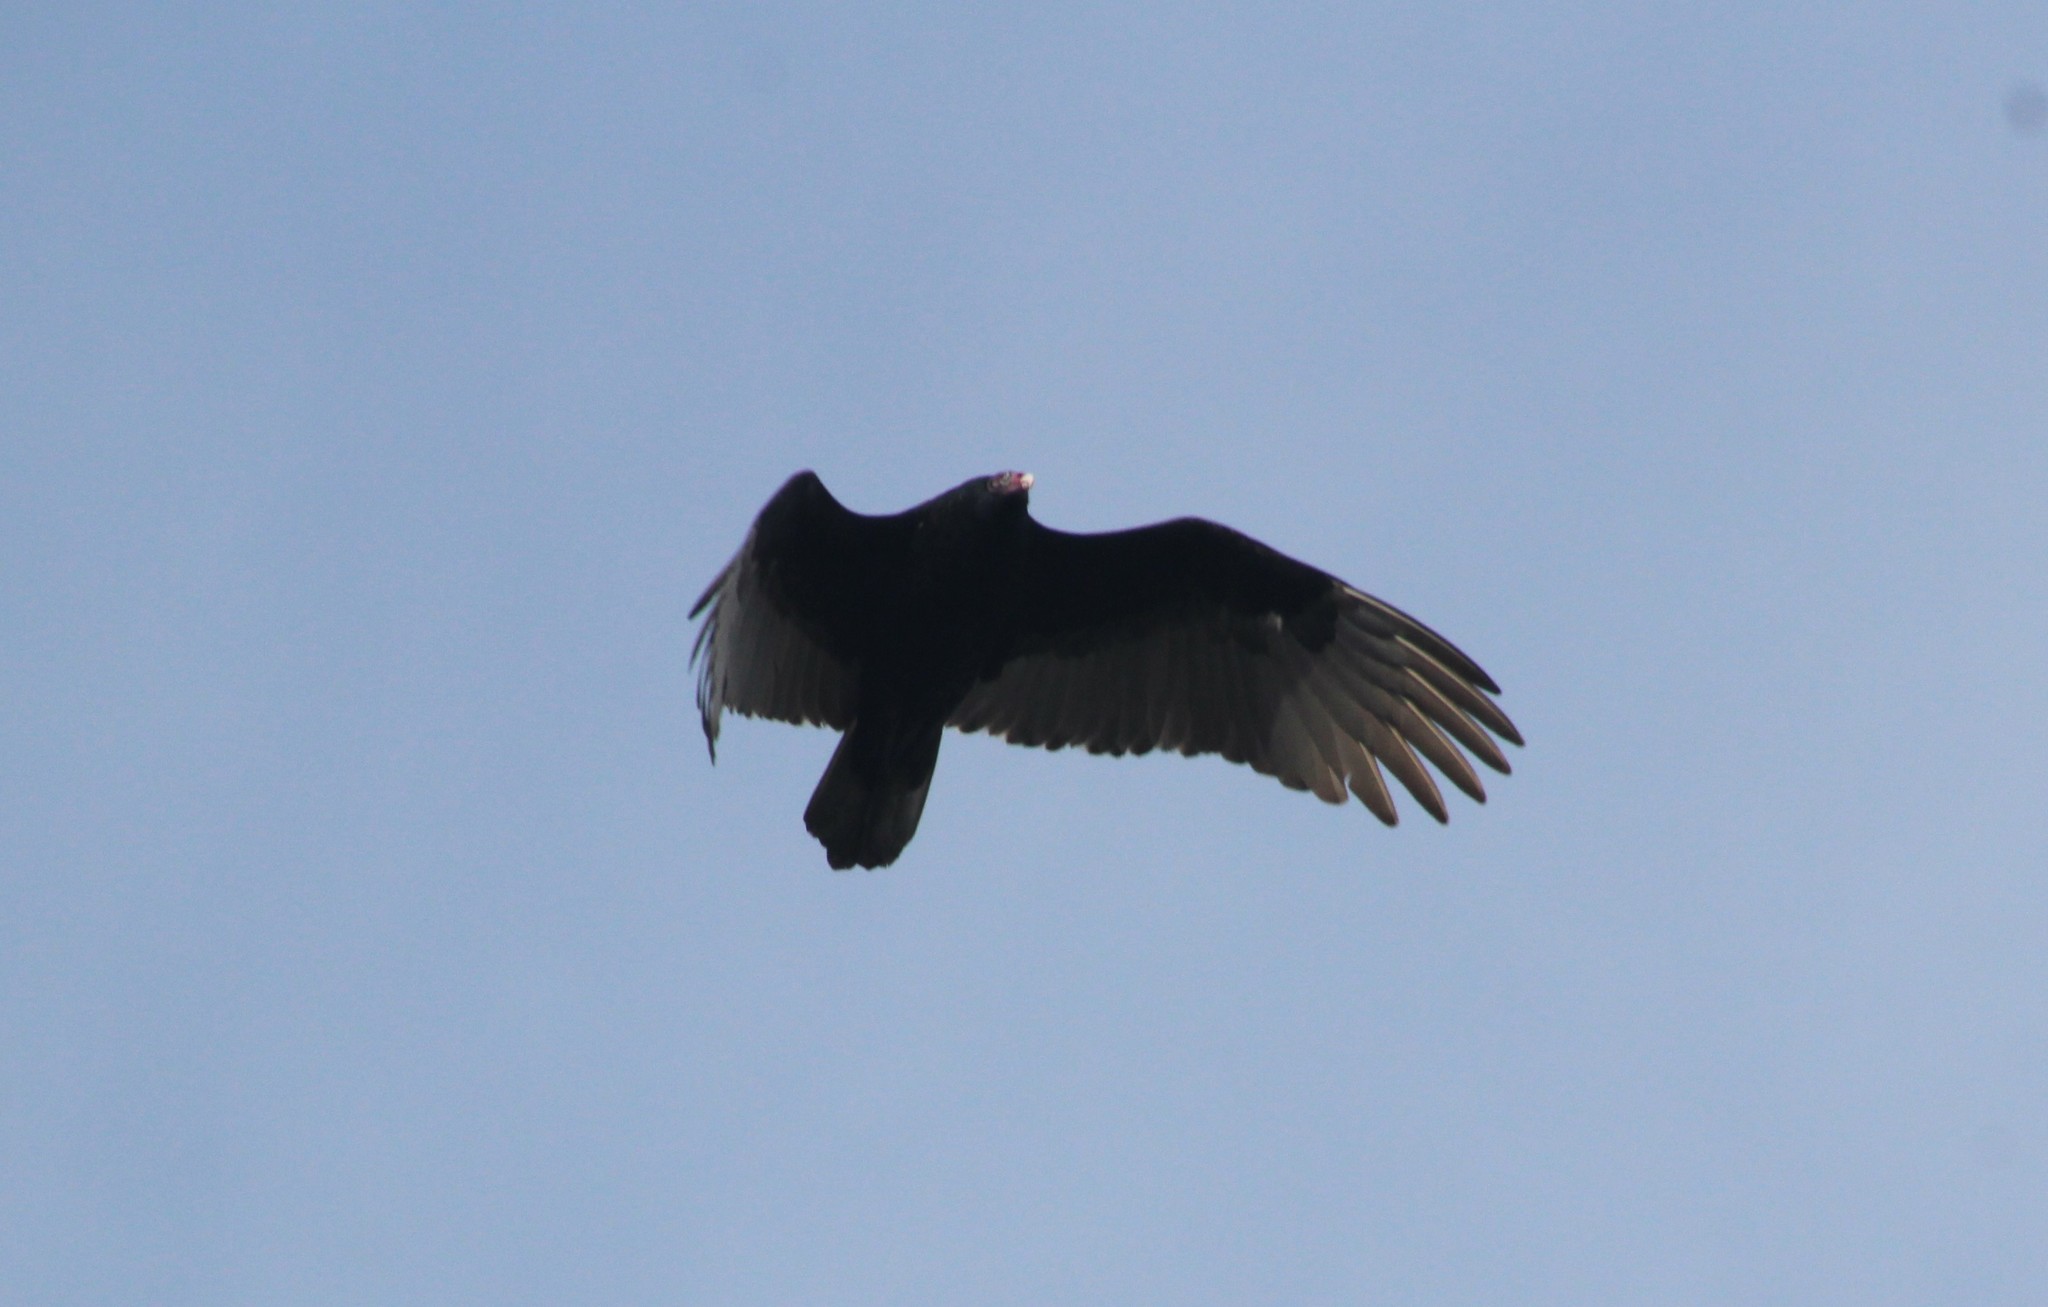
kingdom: Animalia
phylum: Chordata
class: Aves
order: Accipitriformes
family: Cathartidae
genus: Cathartes
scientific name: Cathartes aura
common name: Turkey vulture
